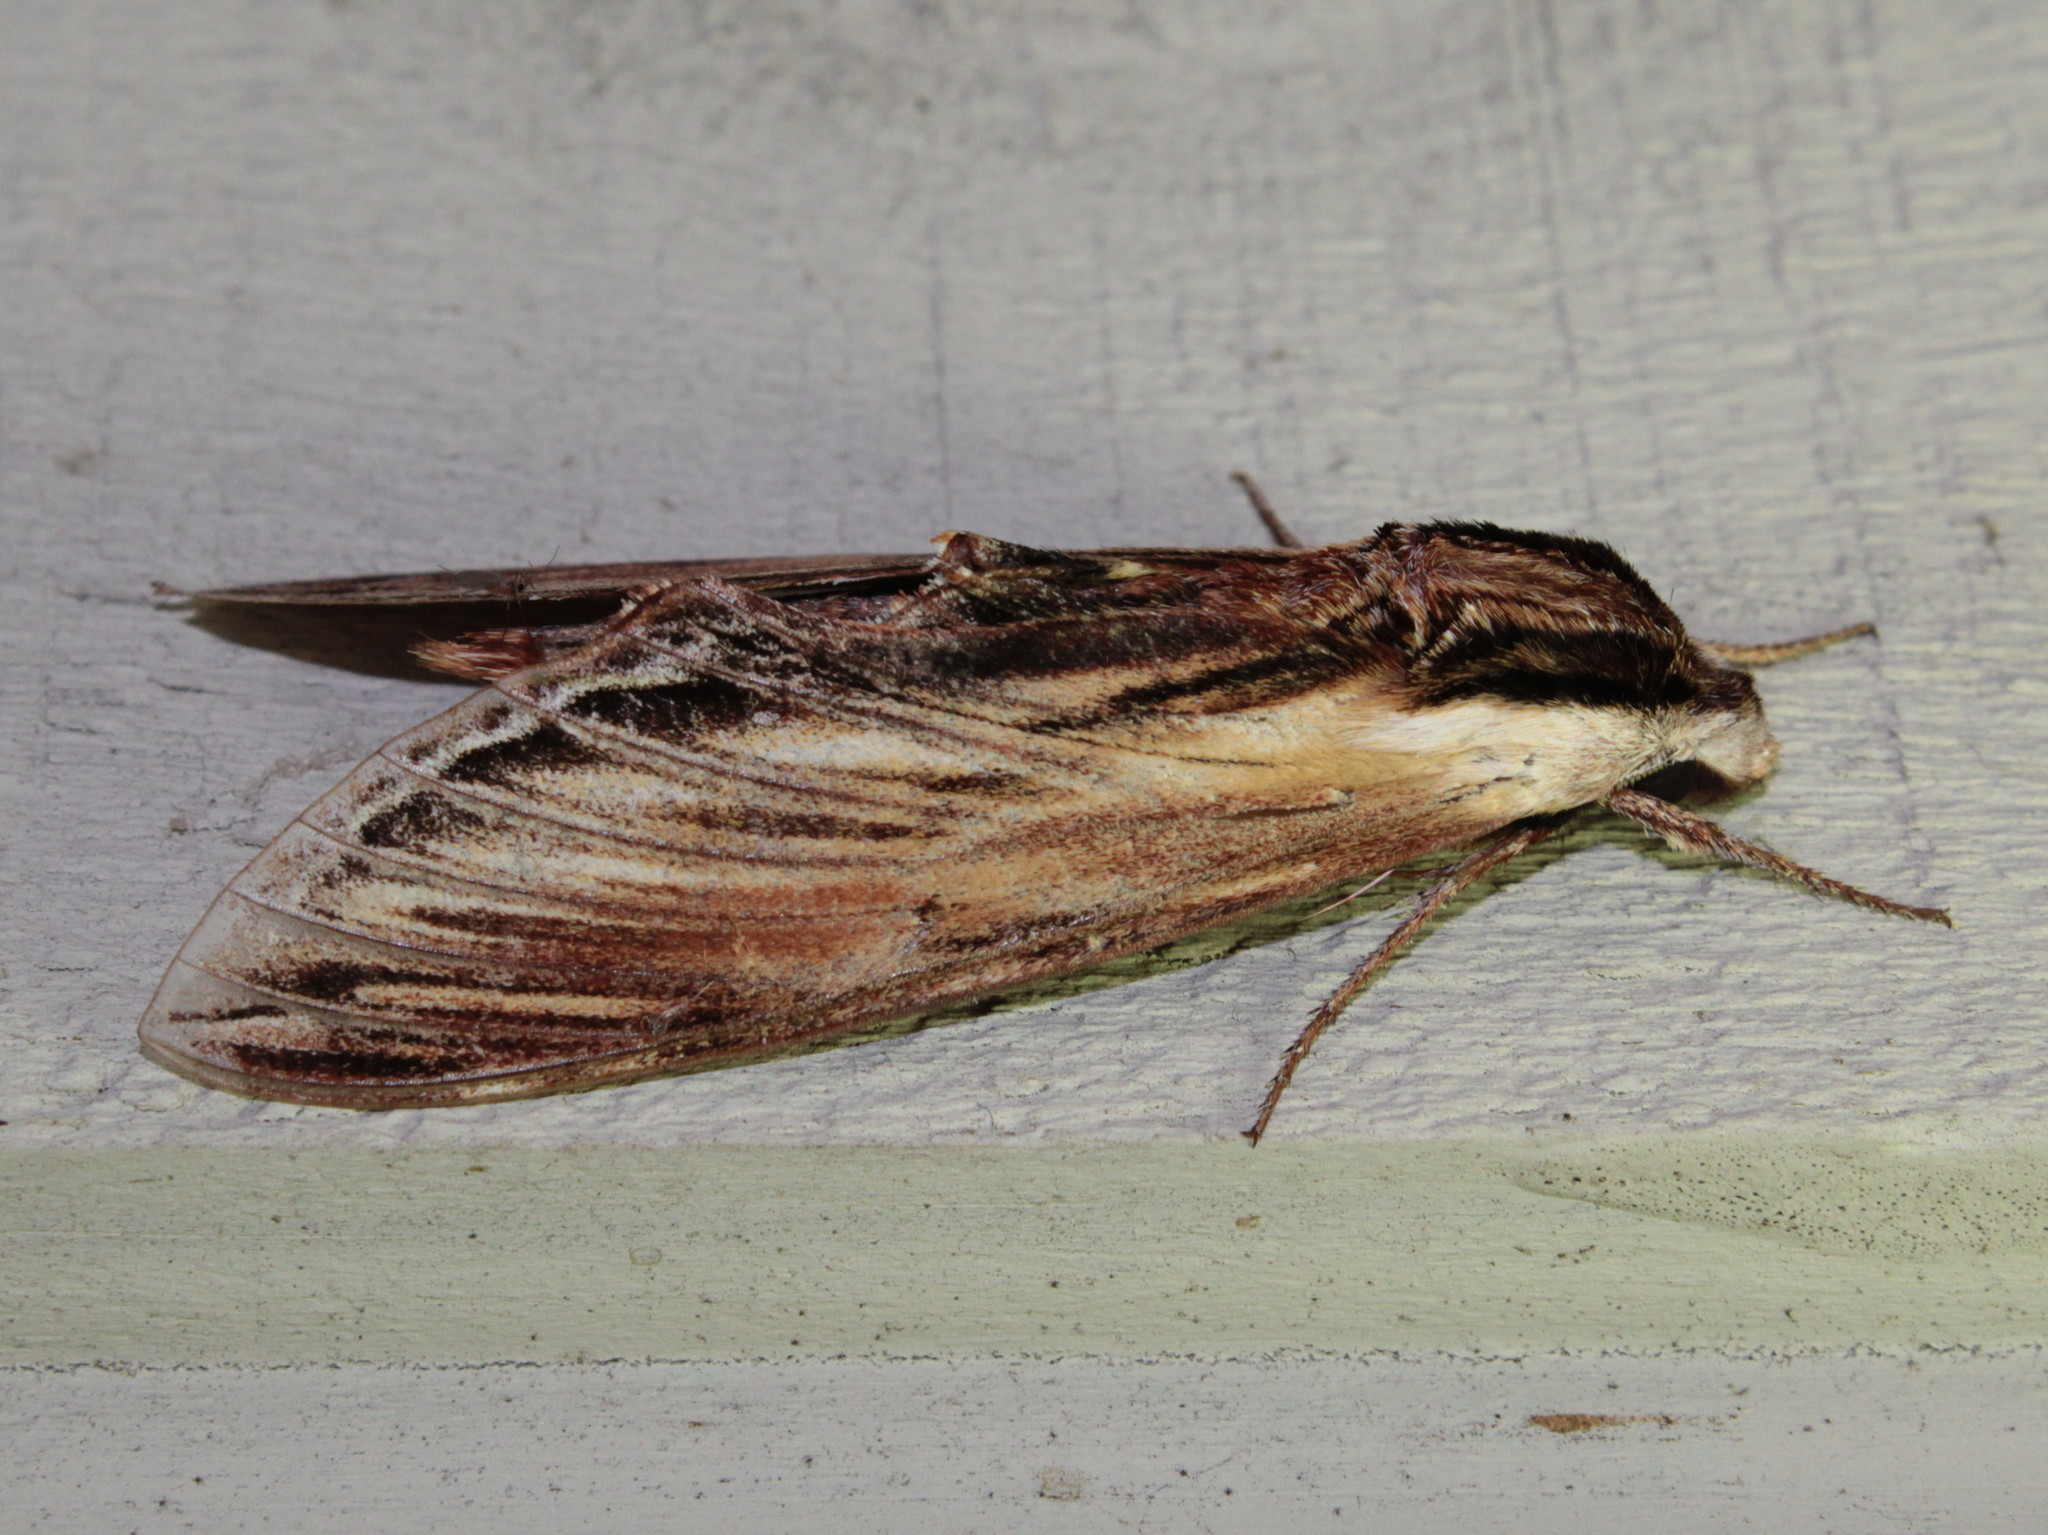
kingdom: Animalia
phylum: Arthropoda
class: Insecta
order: Lepidoptera
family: Sphingidae
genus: Sphinx
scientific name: Sphinx kalmiae
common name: Laurel sphinx
